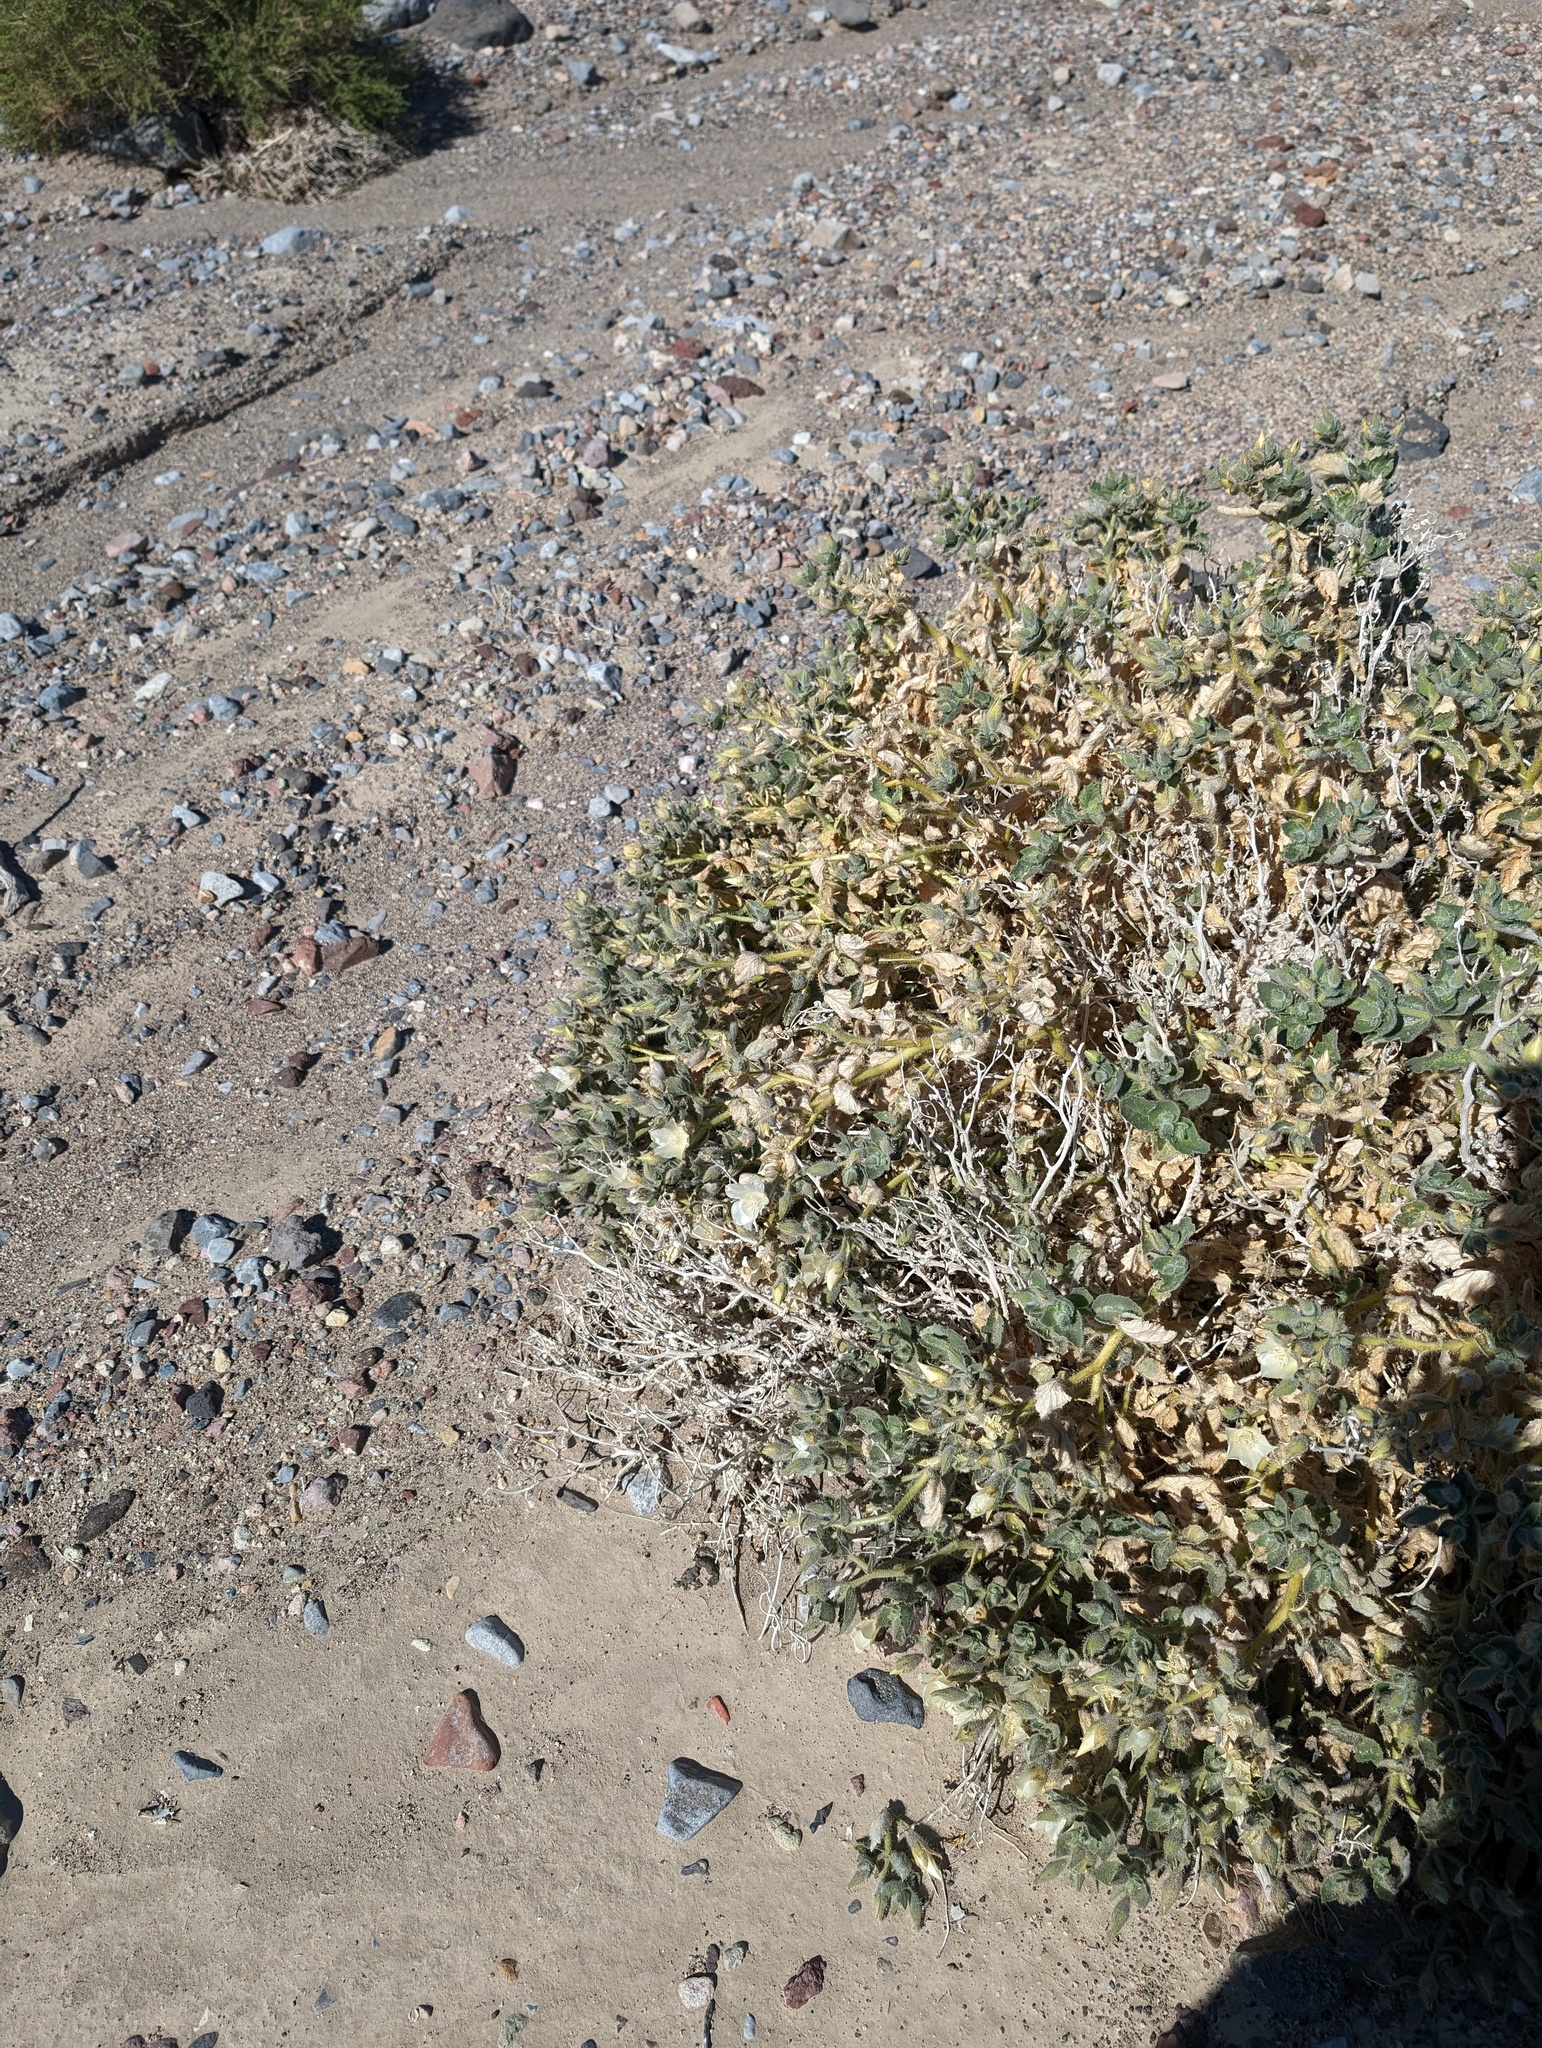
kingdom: Plantae
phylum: Tracheophyta
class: Magnoliopsida
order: Cornales
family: Loasaceae
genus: Eucnide
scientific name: Eucnide urens
